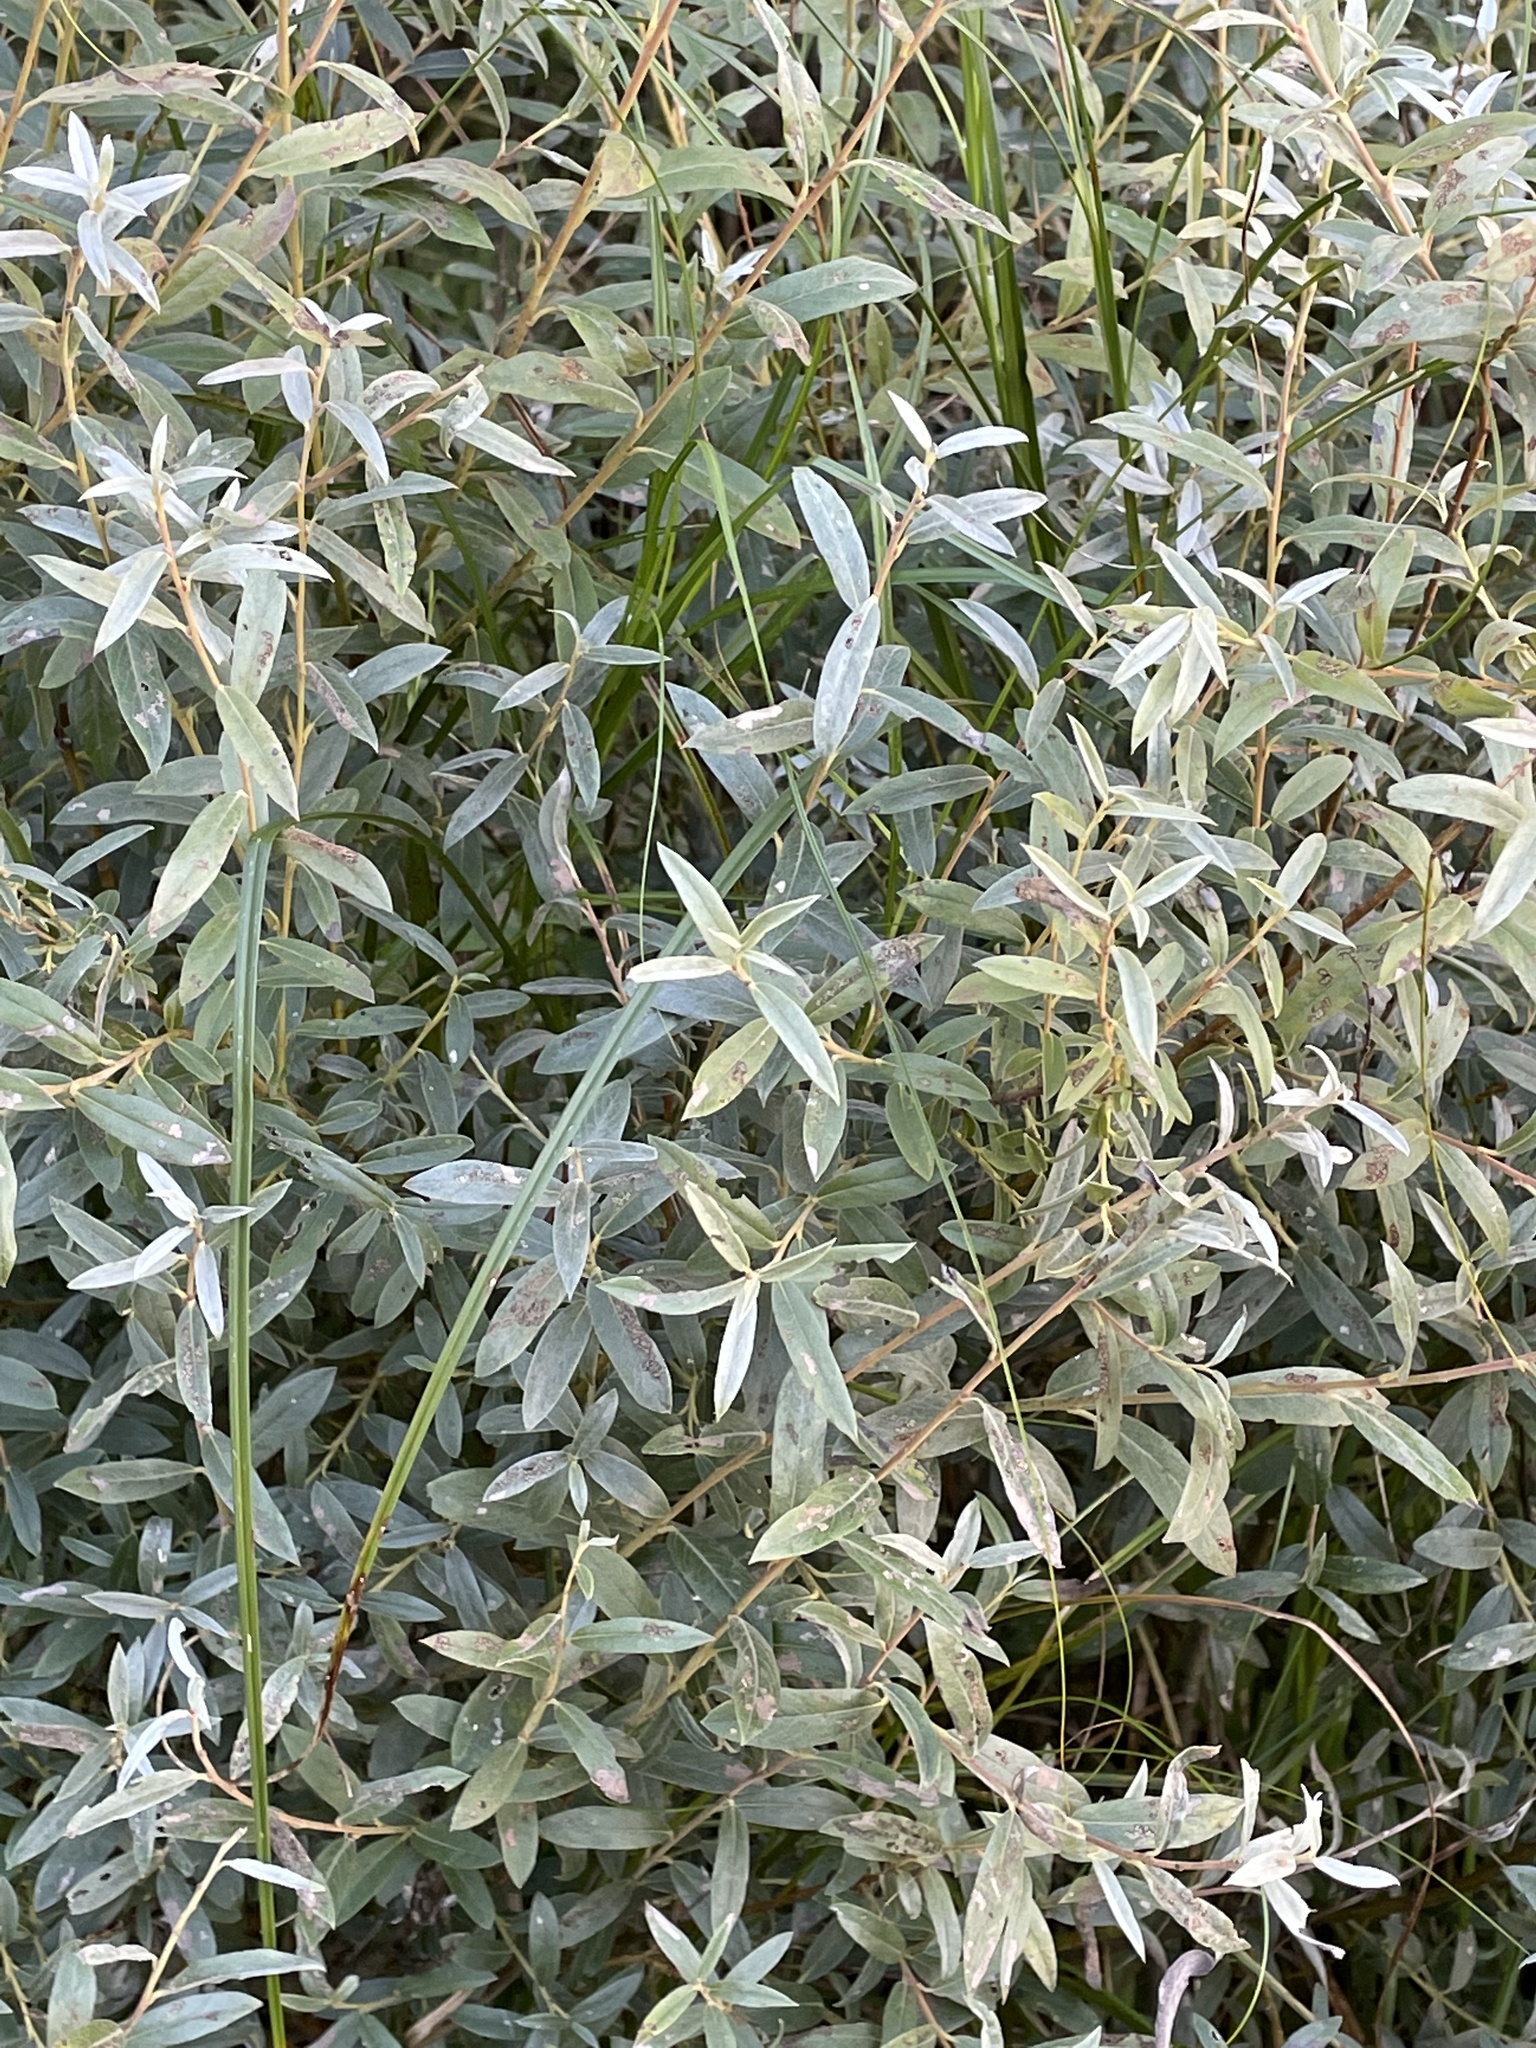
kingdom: Plantae
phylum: Tracheophyta
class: Magnoliopsida
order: Malpighiales
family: Salicaceae
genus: Salix
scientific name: Salix rosmarinifolia
